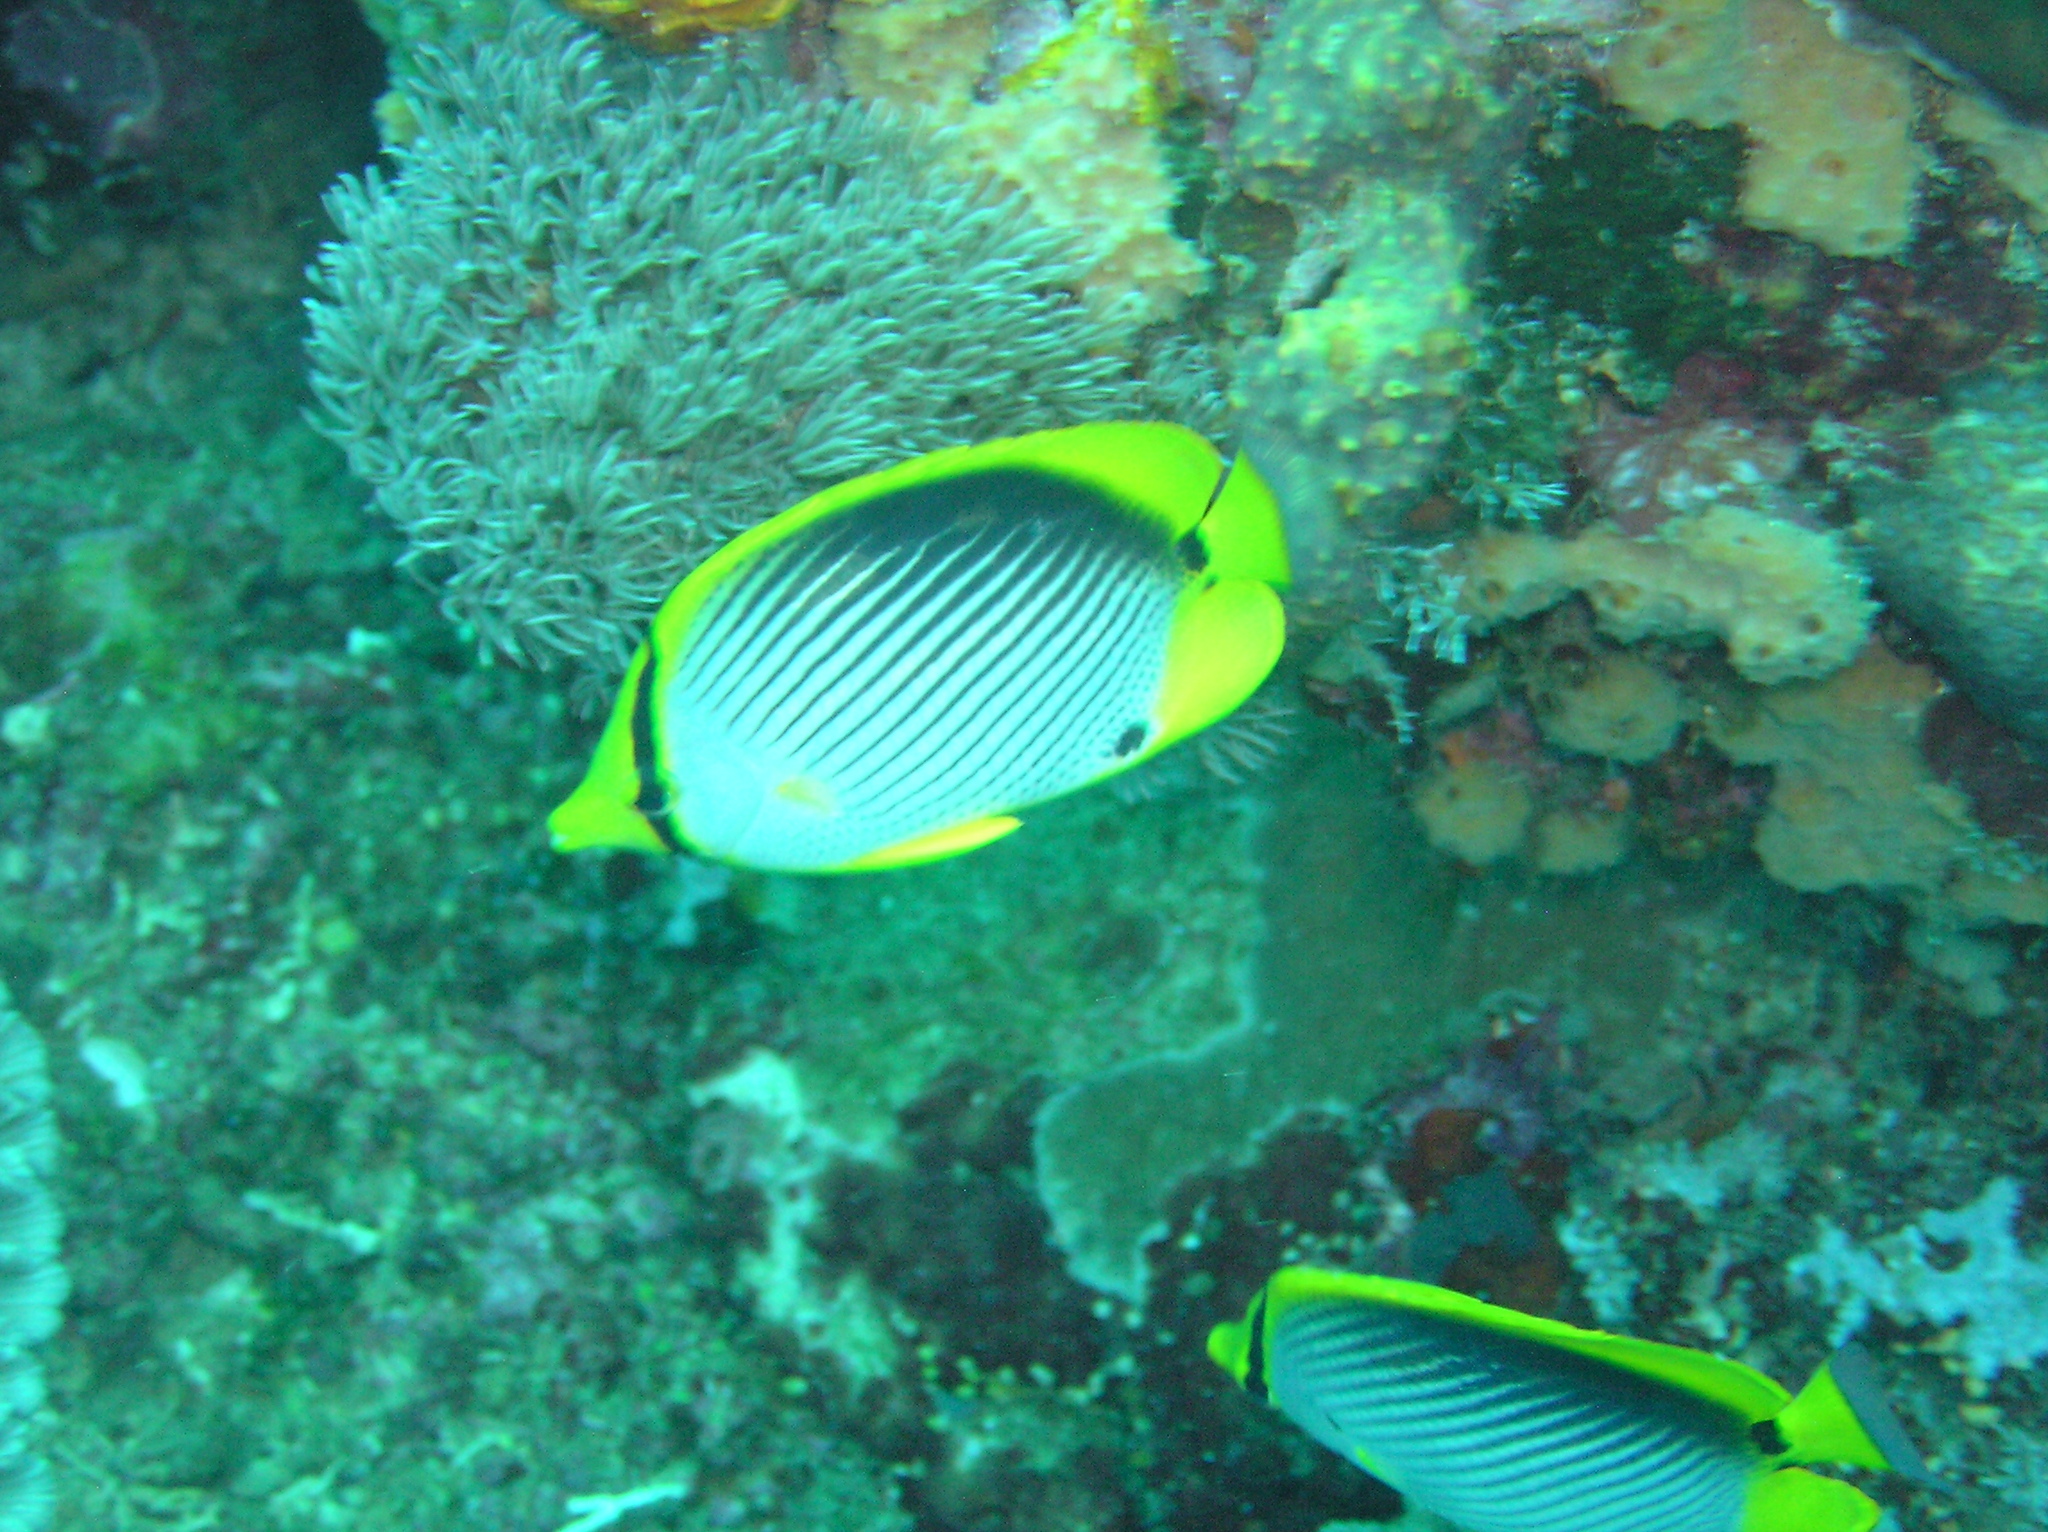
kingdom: Animalia
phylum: Chordata
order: Perciformes
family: Chaetodontidae
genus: Chaetodon
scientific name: Chaetodon melannotus
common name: Blackback butterflyfish
